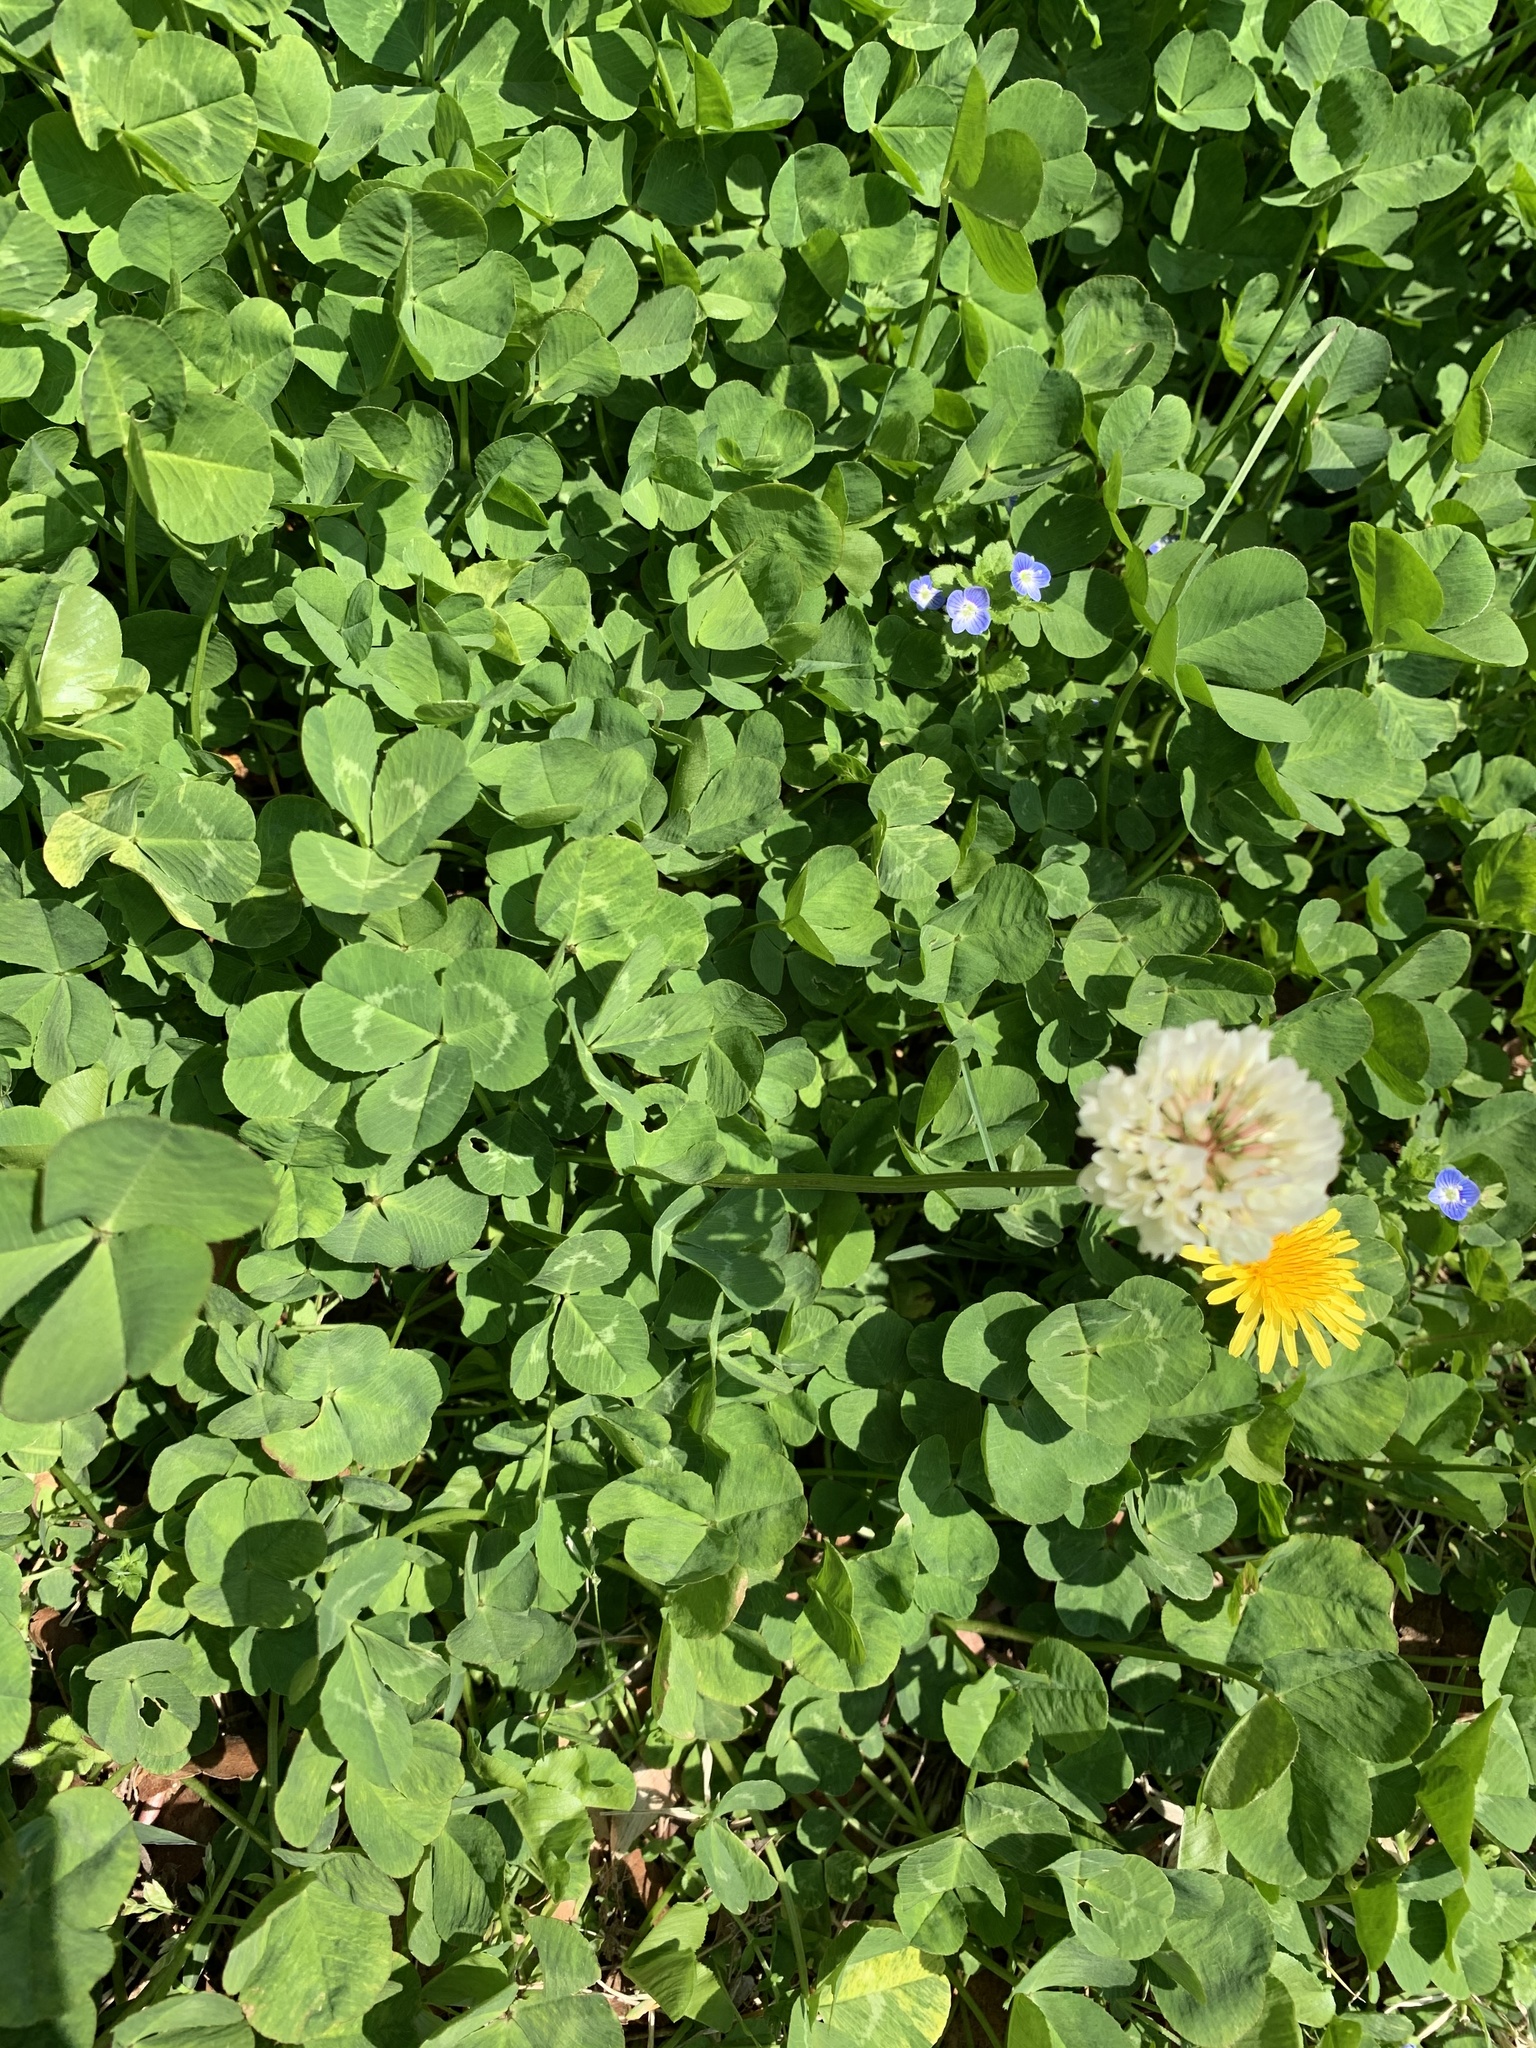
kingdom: Plantae
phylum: Tracheophyta
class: Magnoliopsida
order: Fabales
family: Fabaceae
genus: Trifolium
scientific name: Trifolium repens
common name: White clover
